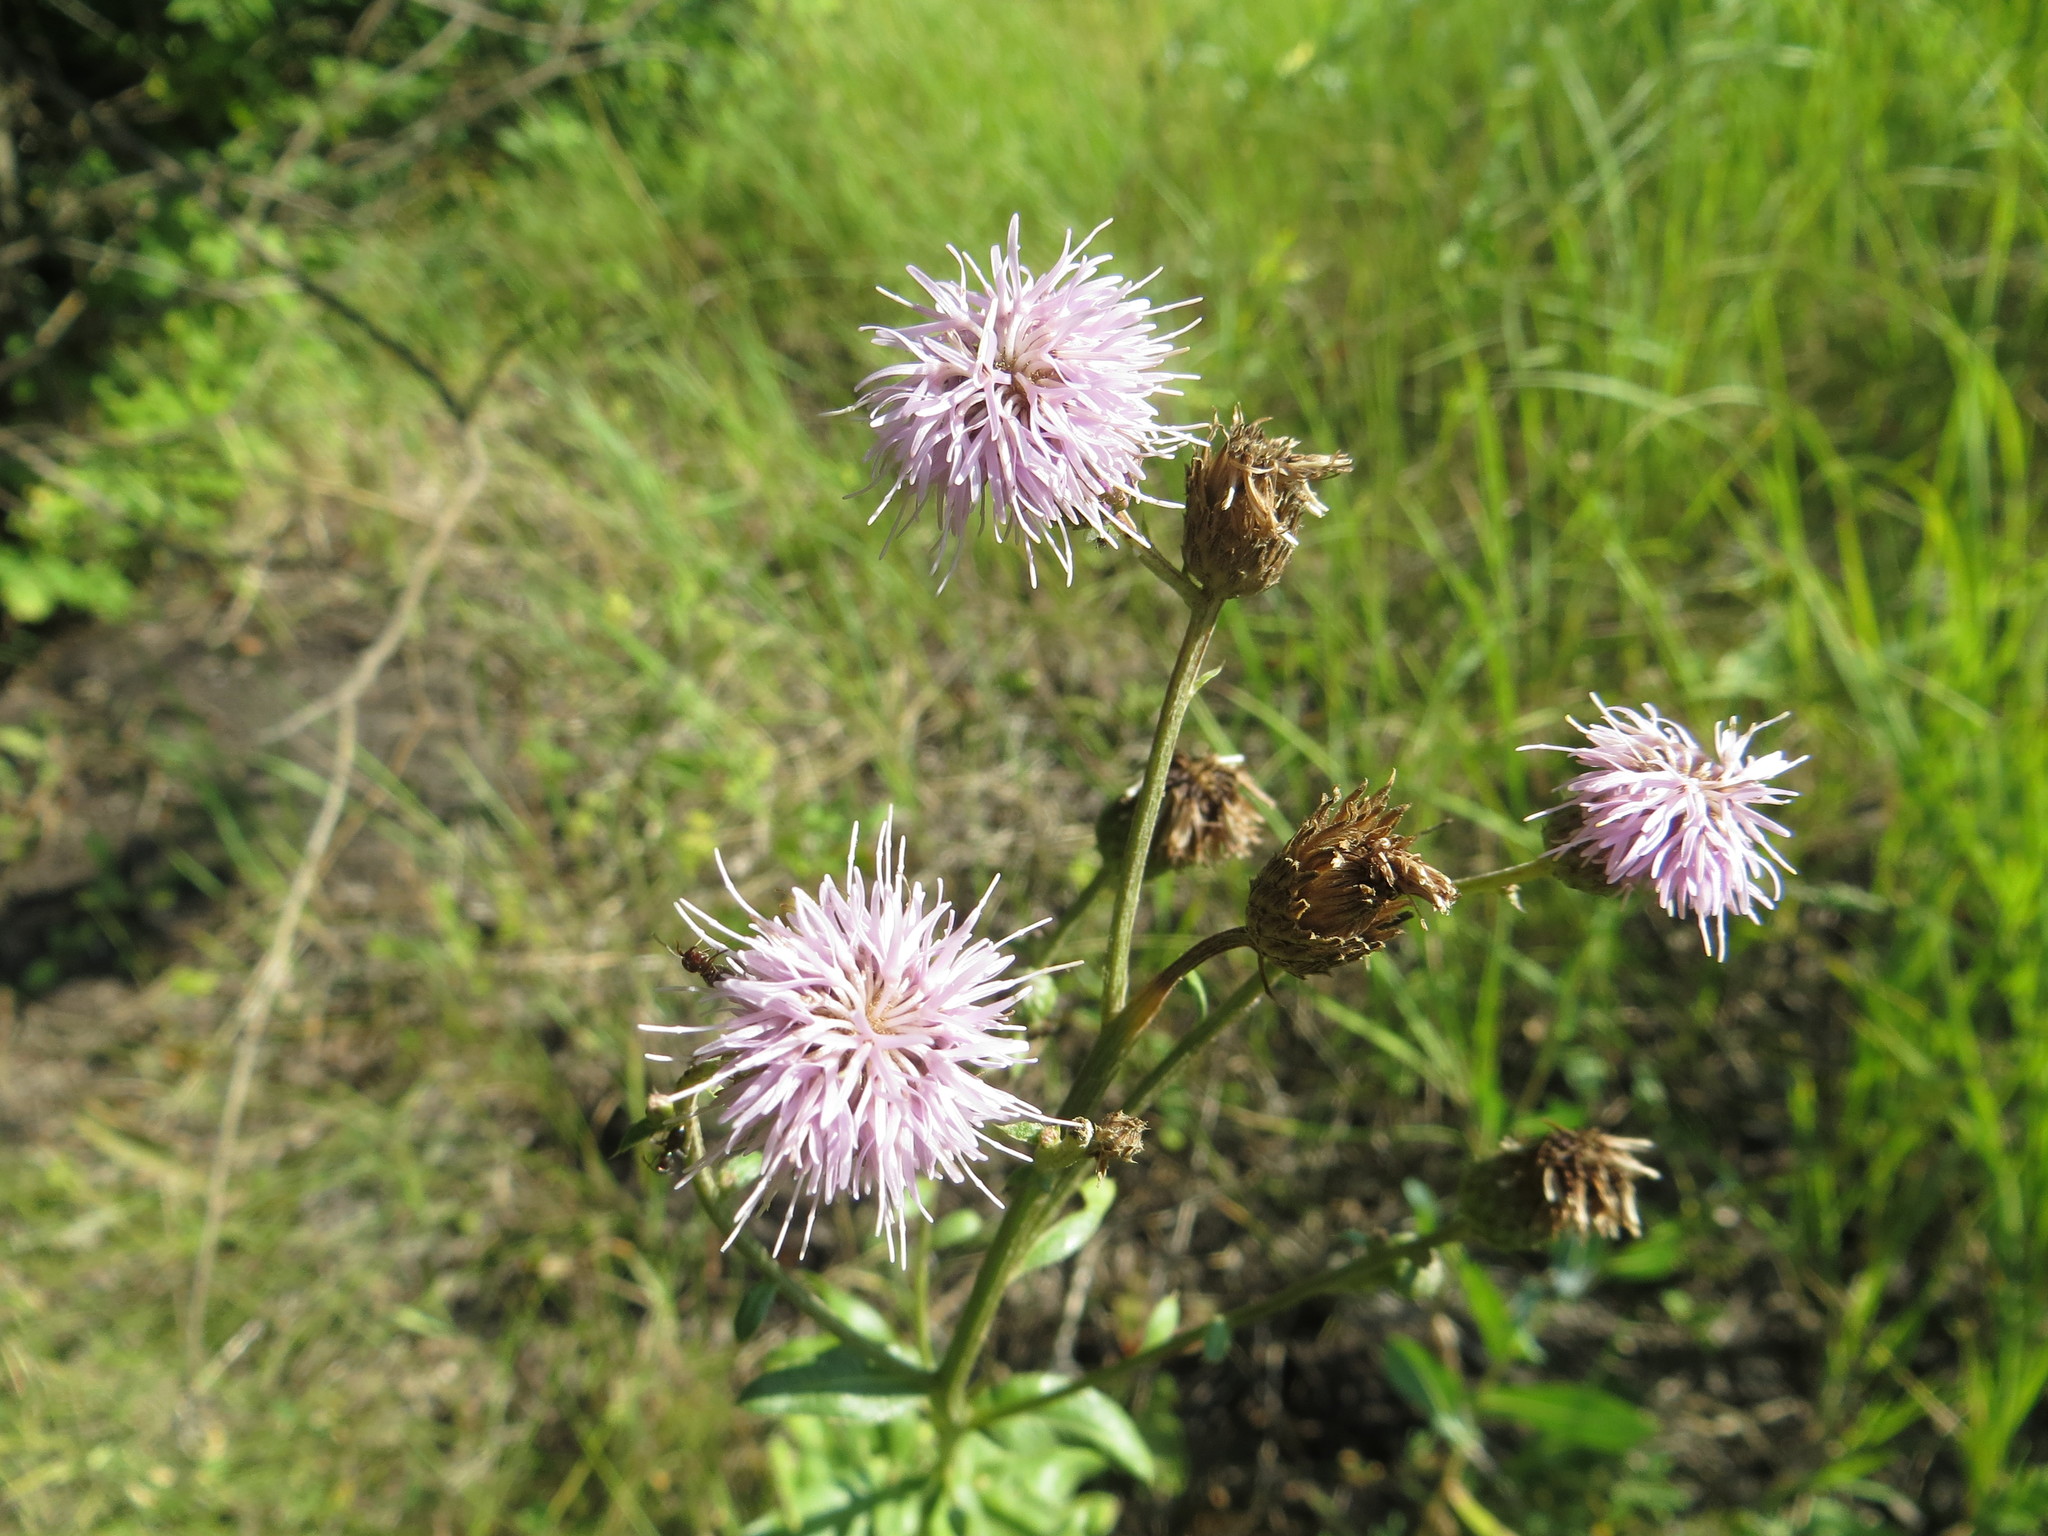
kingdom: Plantae
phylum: Tracheophyta
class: Magnoliopsida
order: Asterales
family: Asteraceae
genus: Cirsium
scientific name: Cirsium arvense
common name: Creeping thistle
